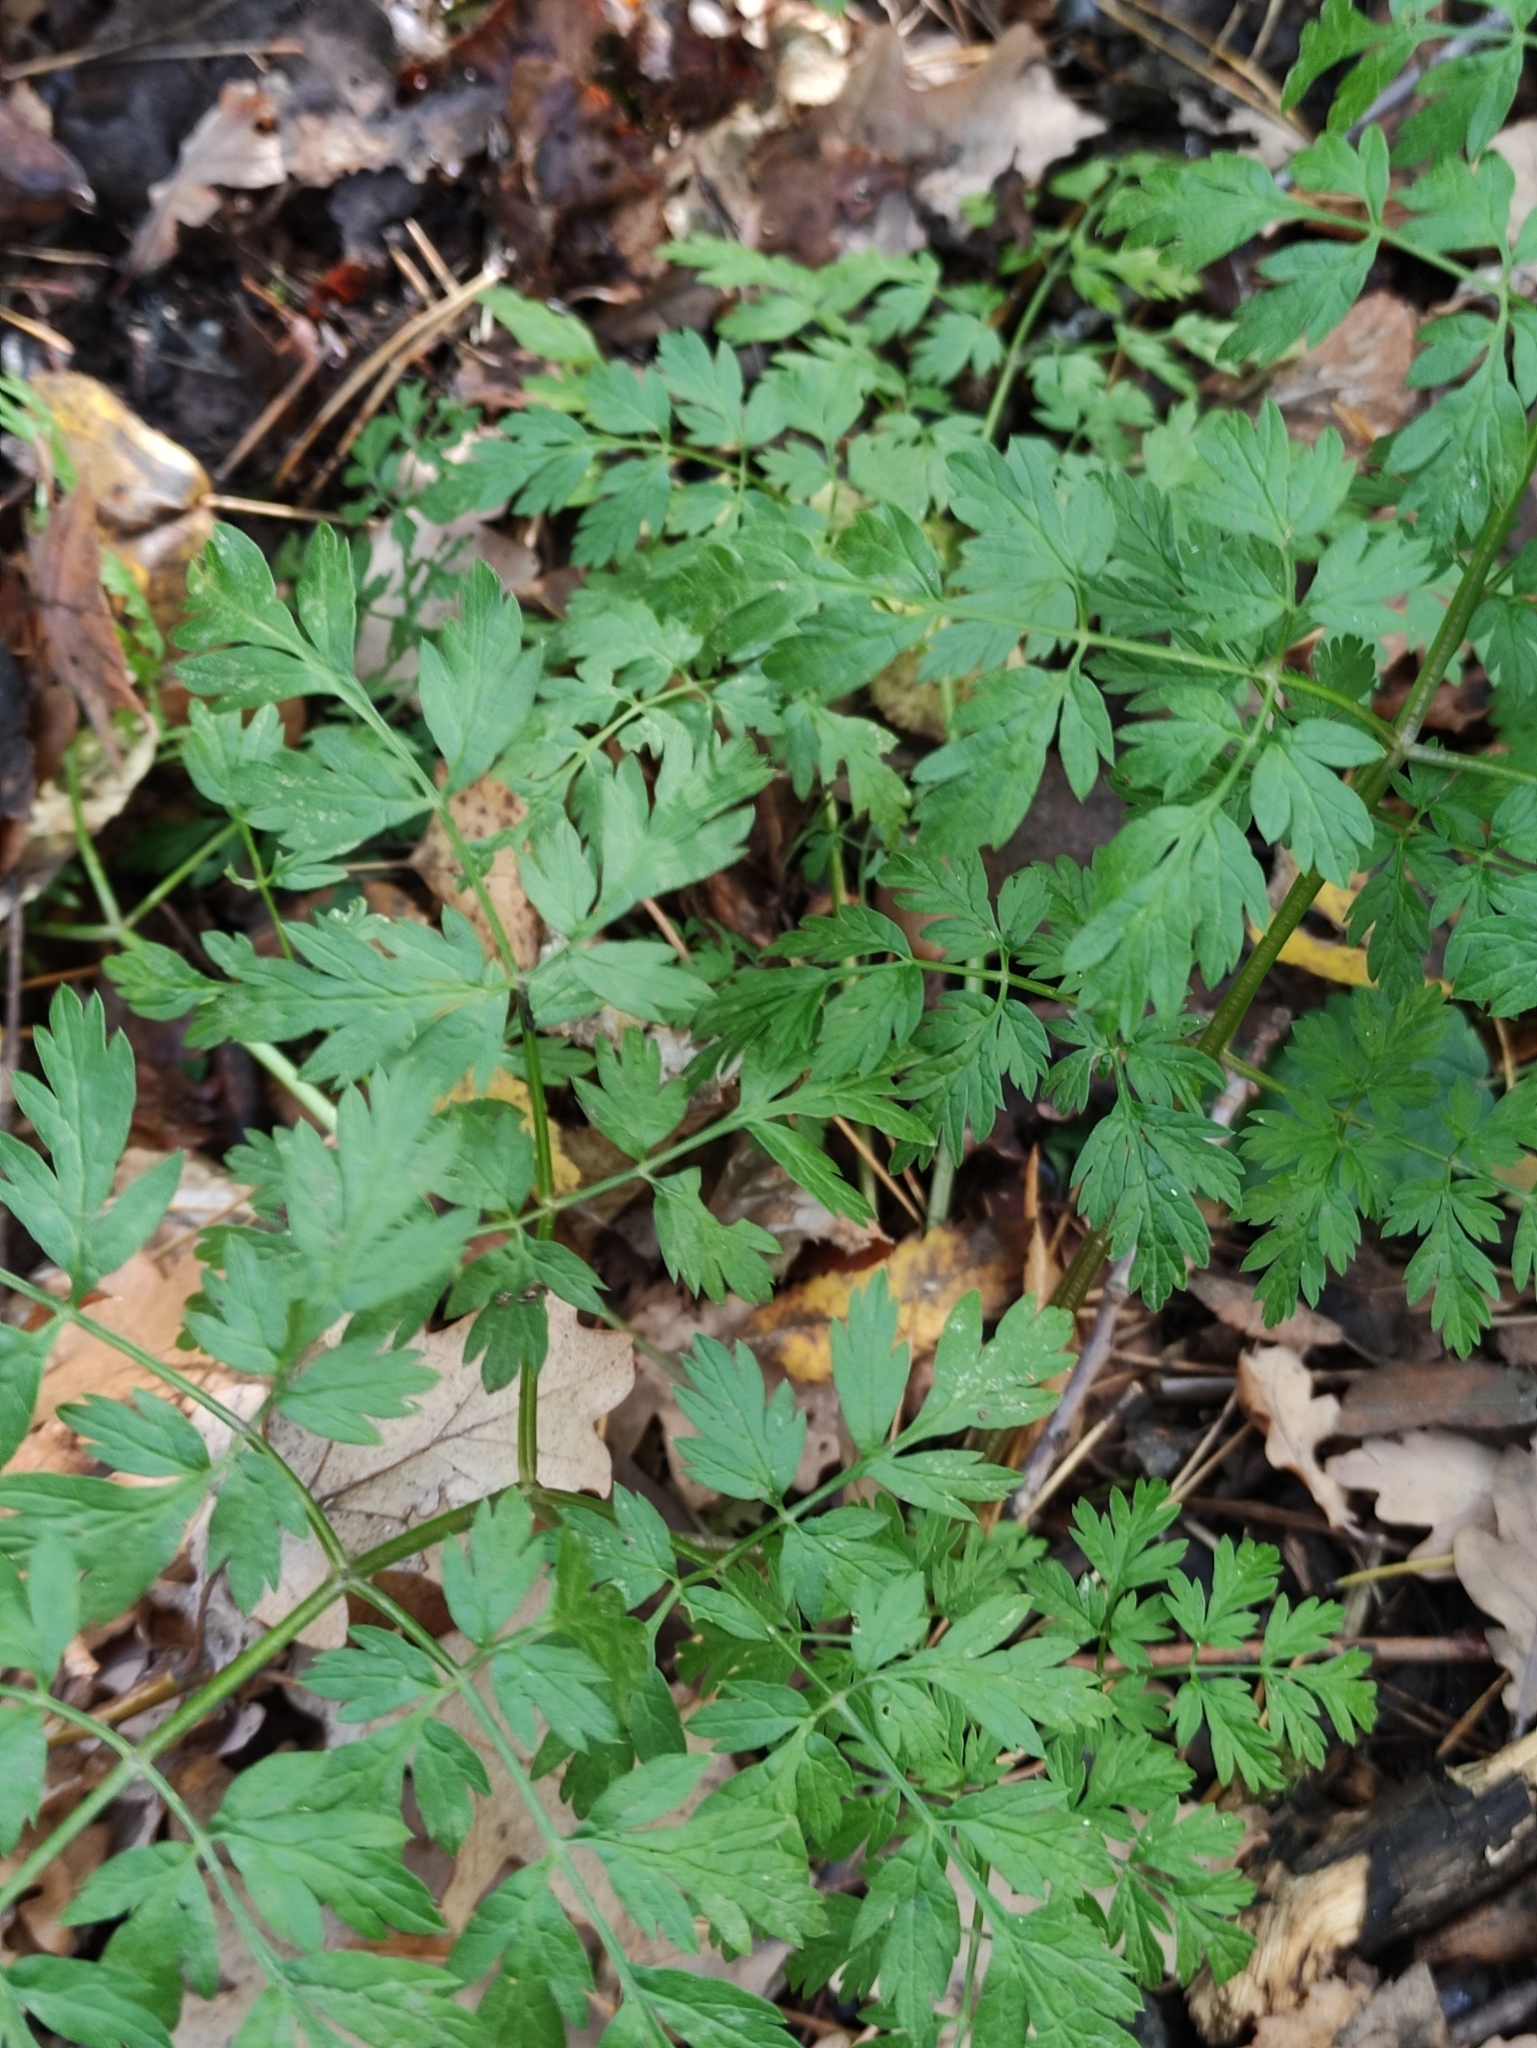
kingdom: Plantae
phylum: Tracheophyta
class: Magnoliopsida
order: Apiales
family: Apiaceae
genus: Anthriscus
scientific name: Anthriscus sylvestris
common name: Cow parsley
